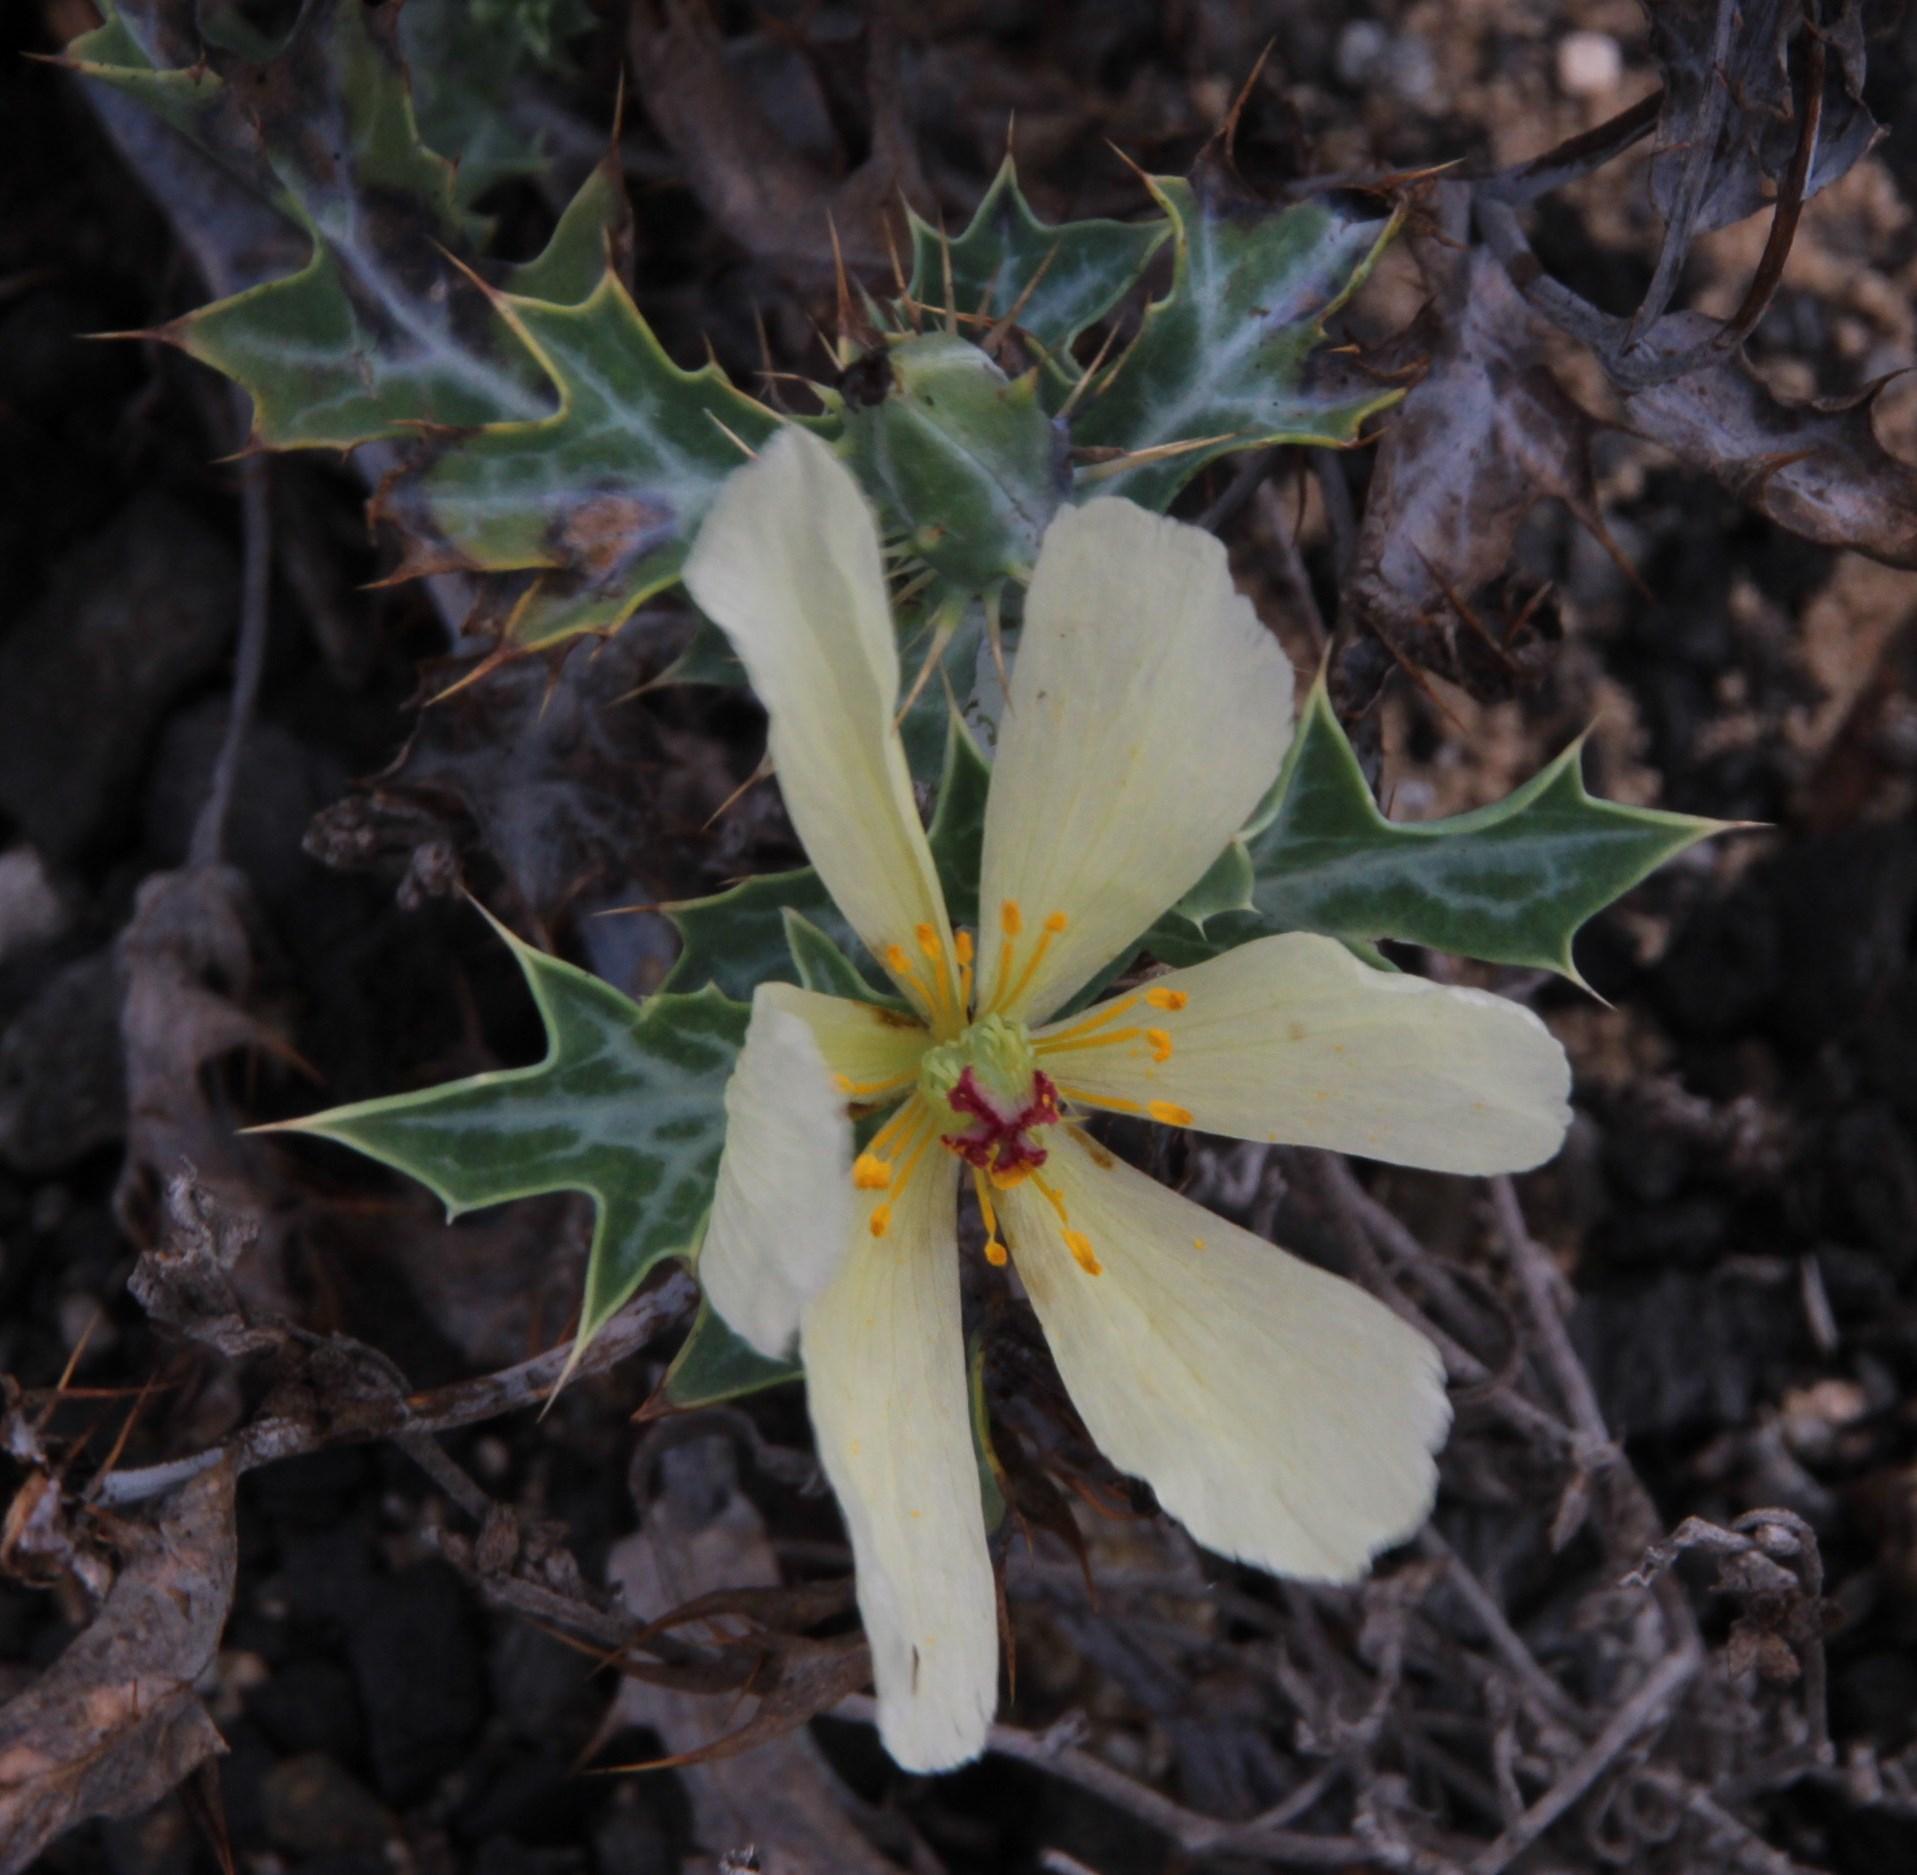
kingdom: Plantae
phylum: Tracheophyta
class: Magnoliopsida
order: Ranunculales
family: Papaveraceae
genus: Argemone
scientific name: Argemone ochroleuca
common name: White-flower mexican-poppy
